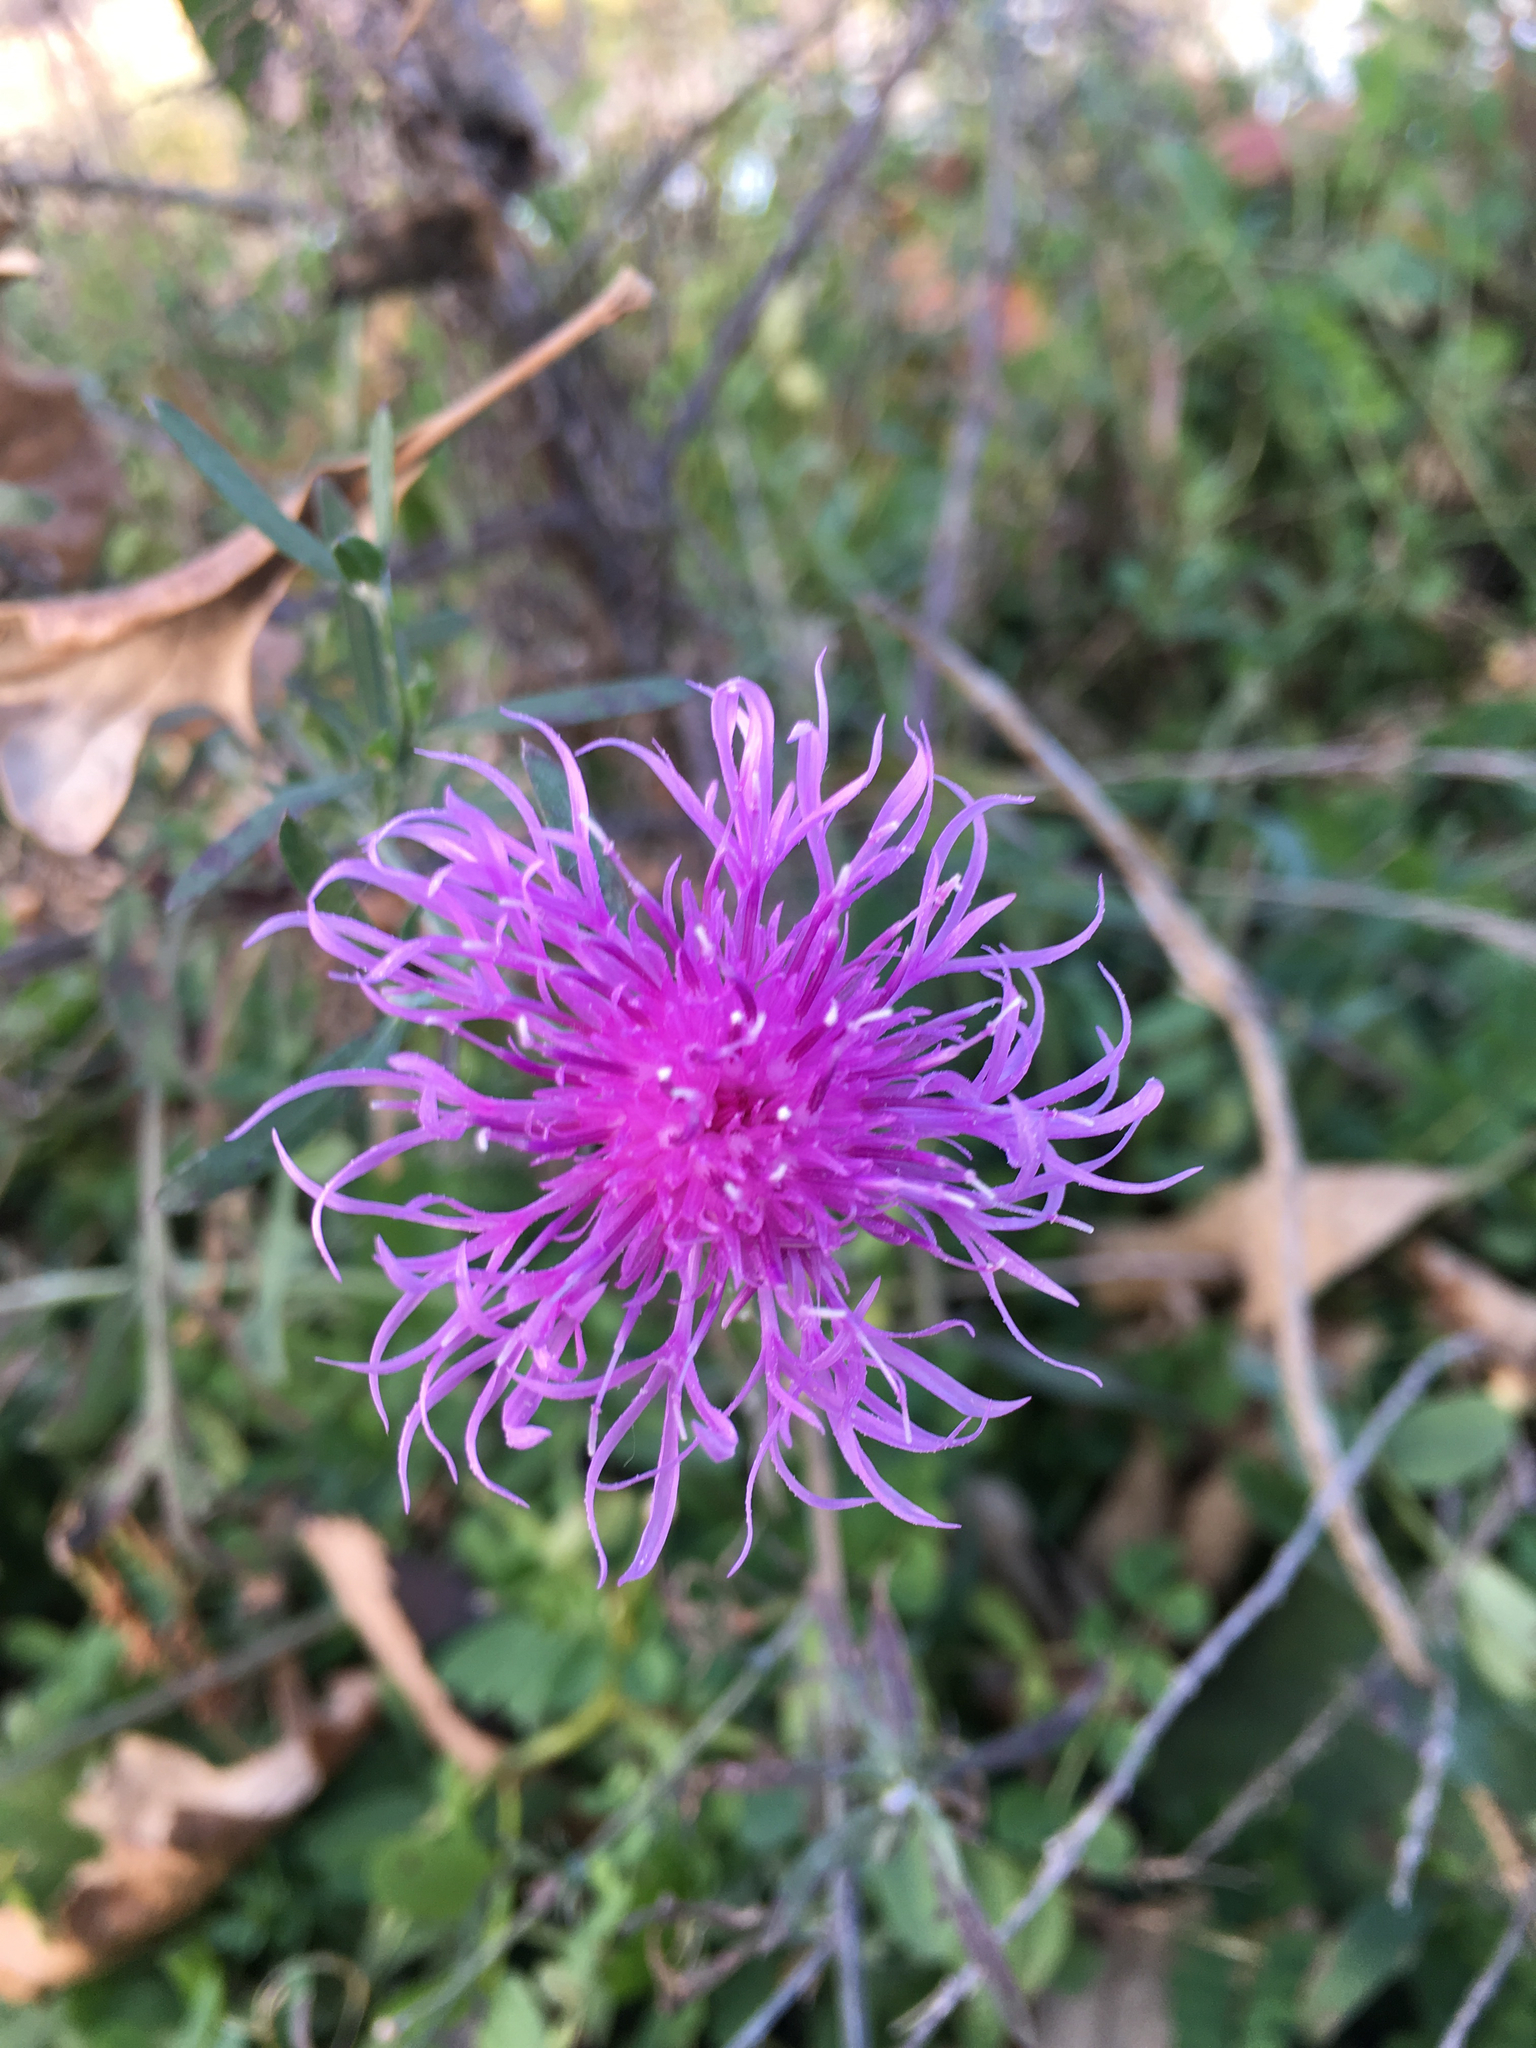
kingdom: Plantae
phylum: Tracheophyta
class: Magnoliopsida
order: Asterales
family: Asteraceae
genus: Centaurea
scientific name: Centaurea stoebe
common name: Spotted knapweed
